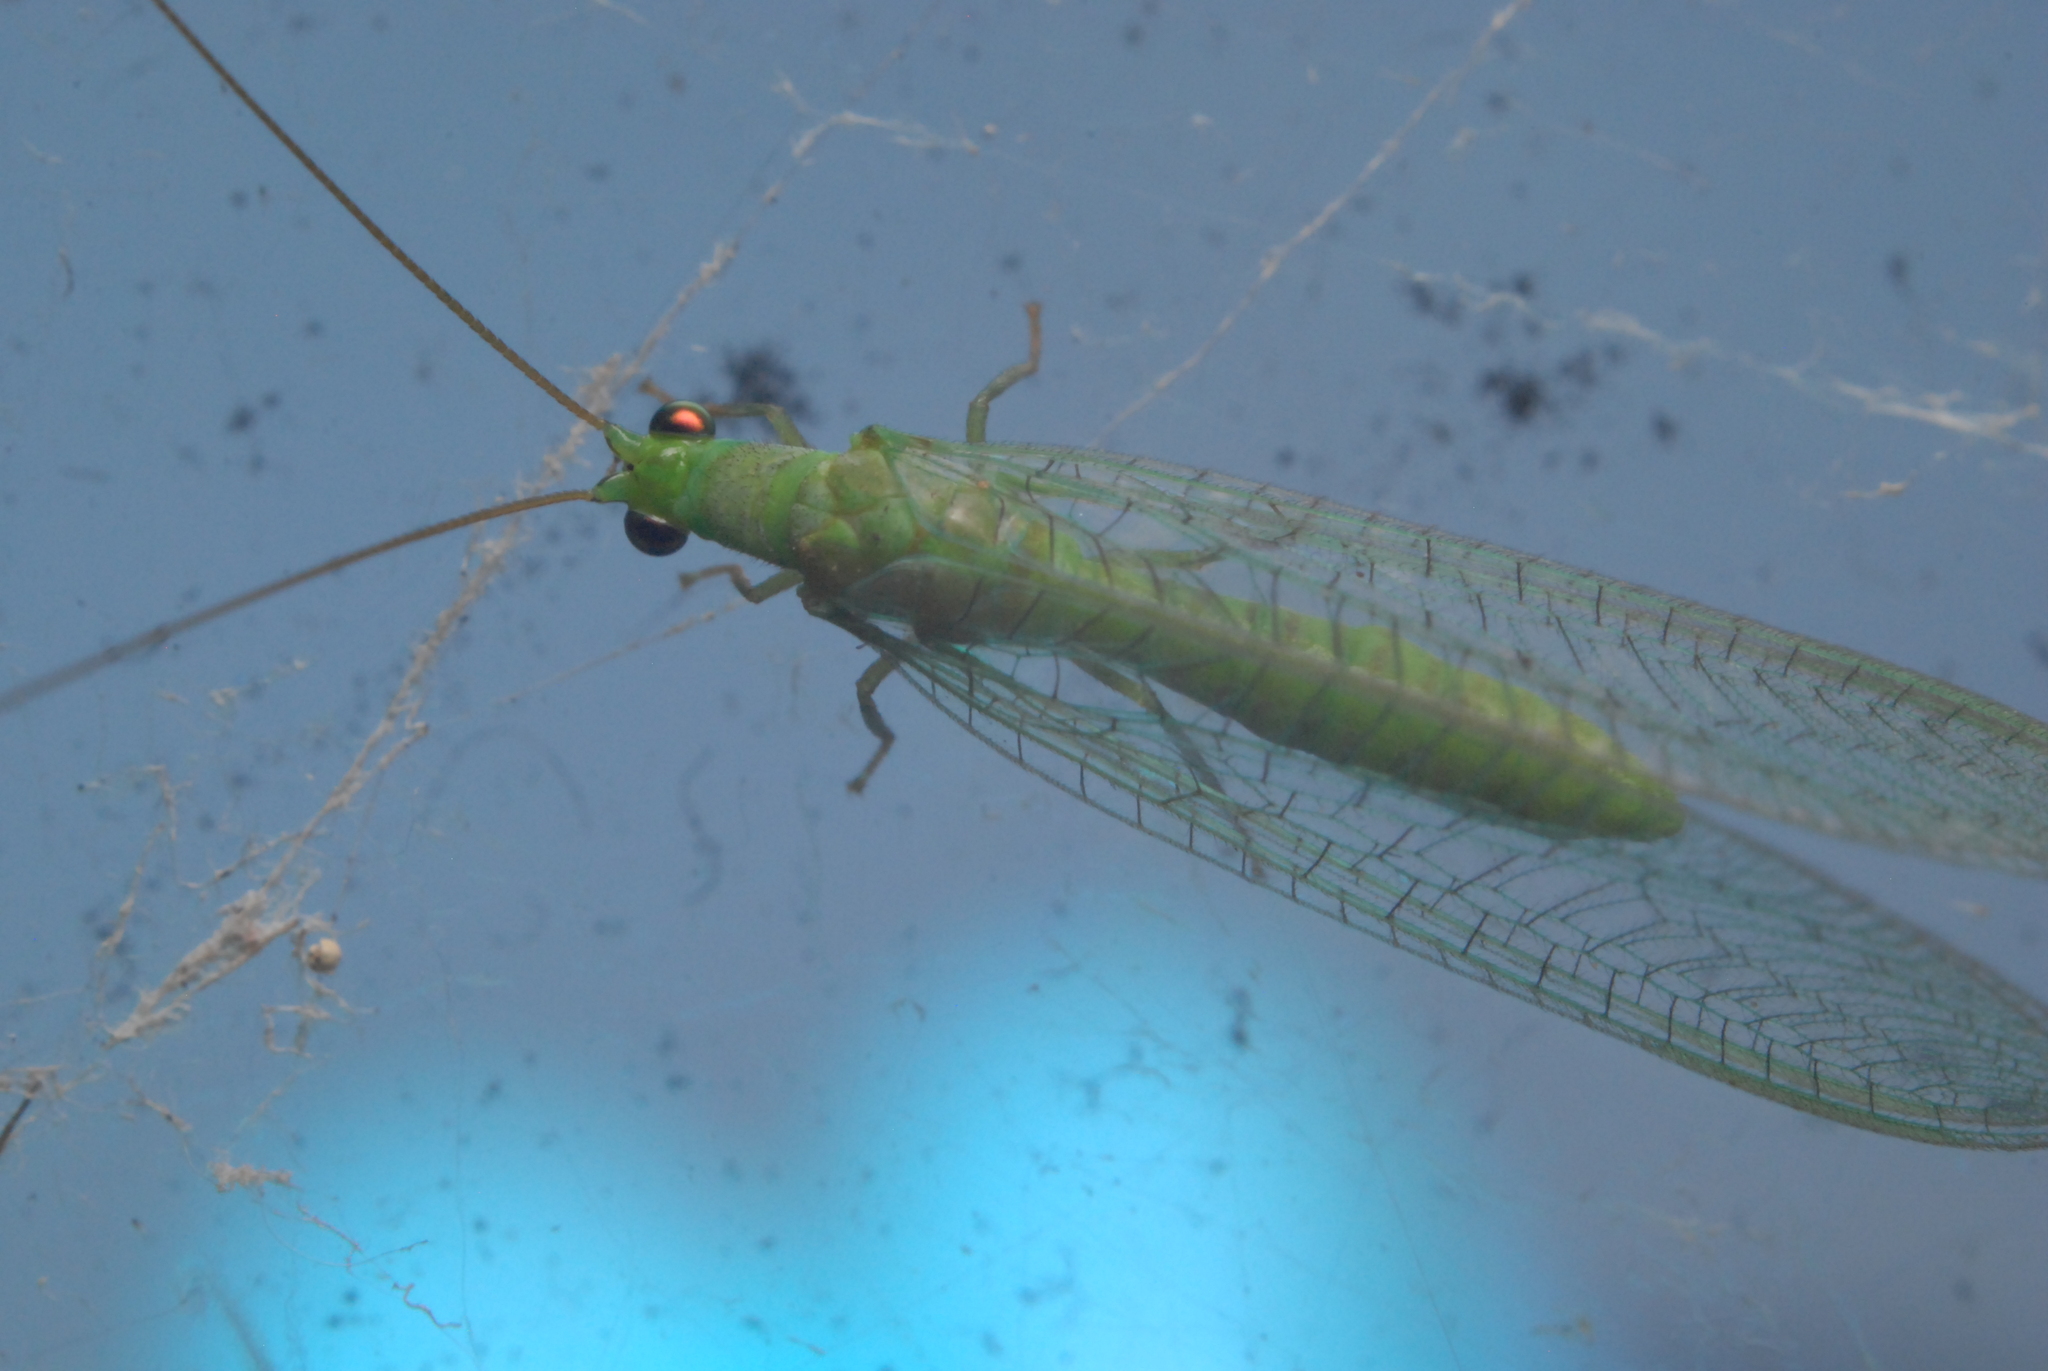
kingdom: Animalia
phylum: Arthropoda
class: Insecta
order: Neuroptera
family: Chrysopidae
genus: Mallada
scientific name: Mallada signatus
